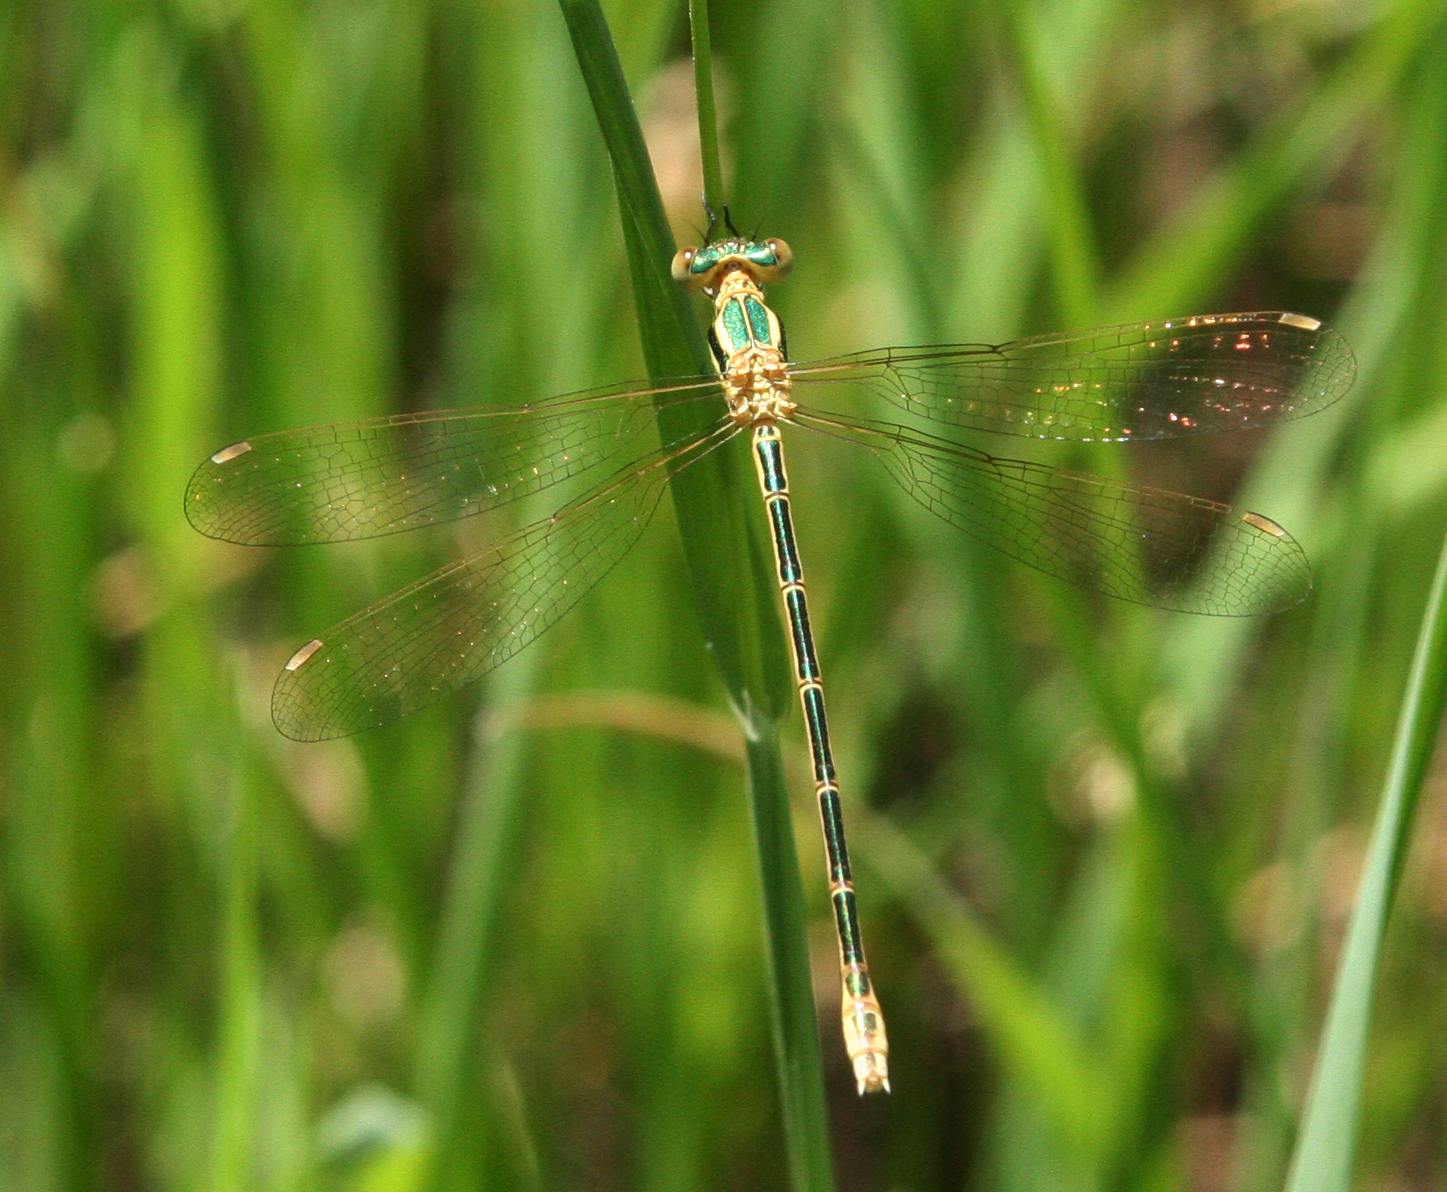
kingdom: Animalia
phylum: Arthropoda
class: Insecta
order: Odonata
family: Lestidae
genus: Lestes
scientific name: Lestes barbarus
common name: Migrant spreadwing
